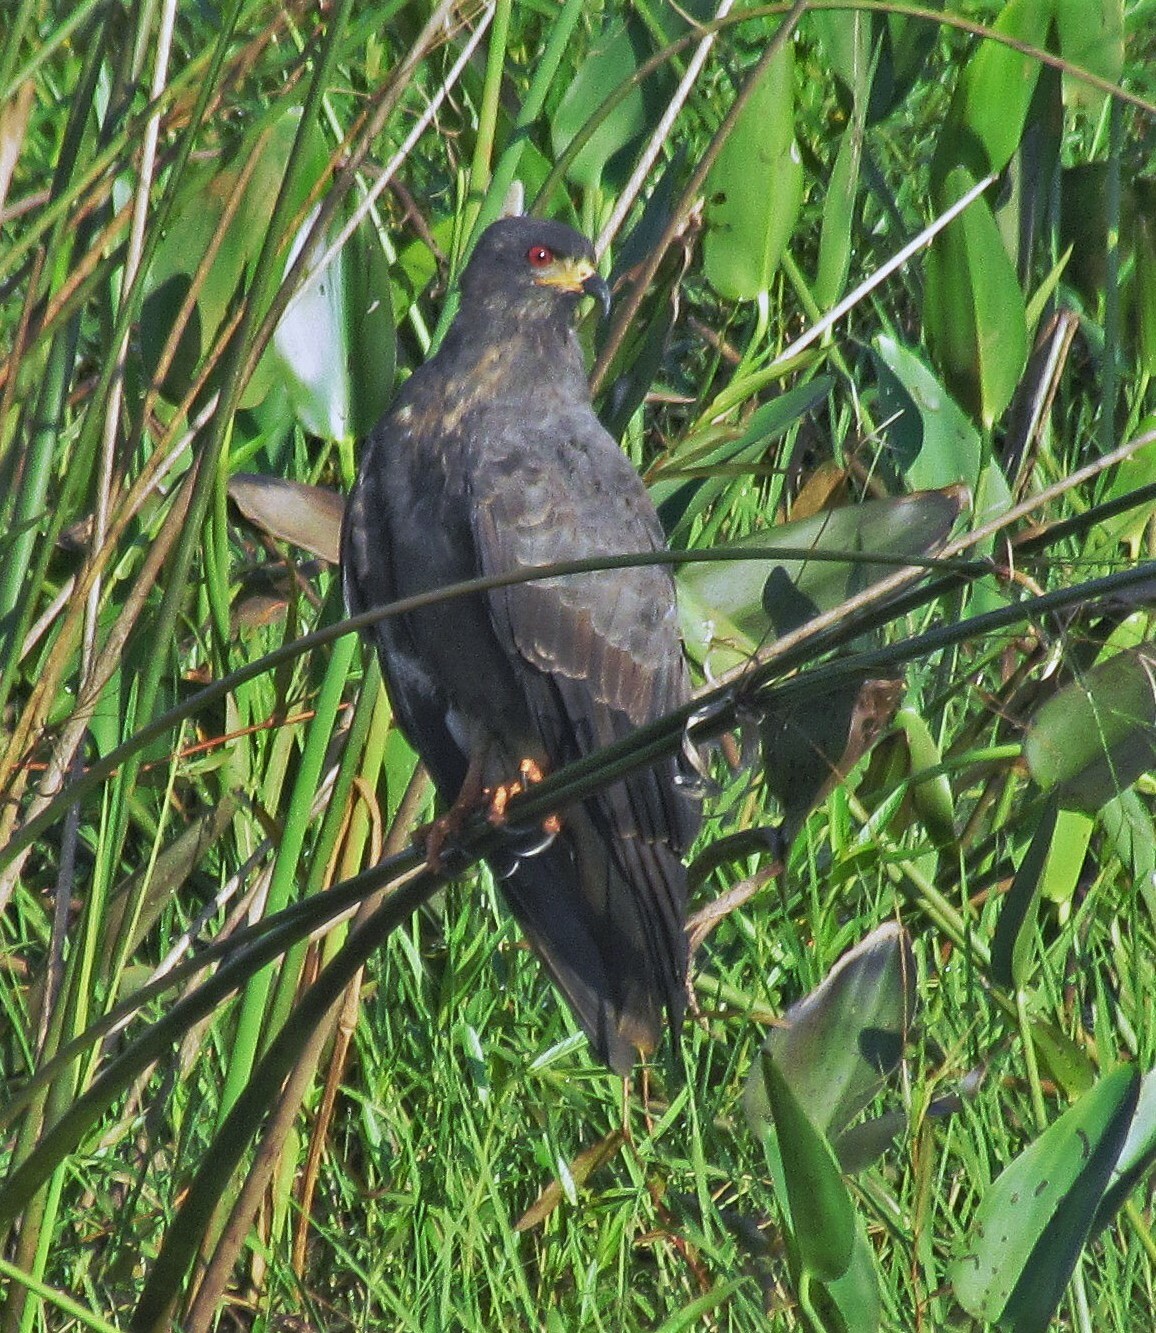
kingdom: Animalia
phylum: Chordata
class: Aves
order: Accipitriformes
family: Accipitridae
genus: Rostrhamus
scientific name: Rostrhamus sociabilis
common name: Snail kite
